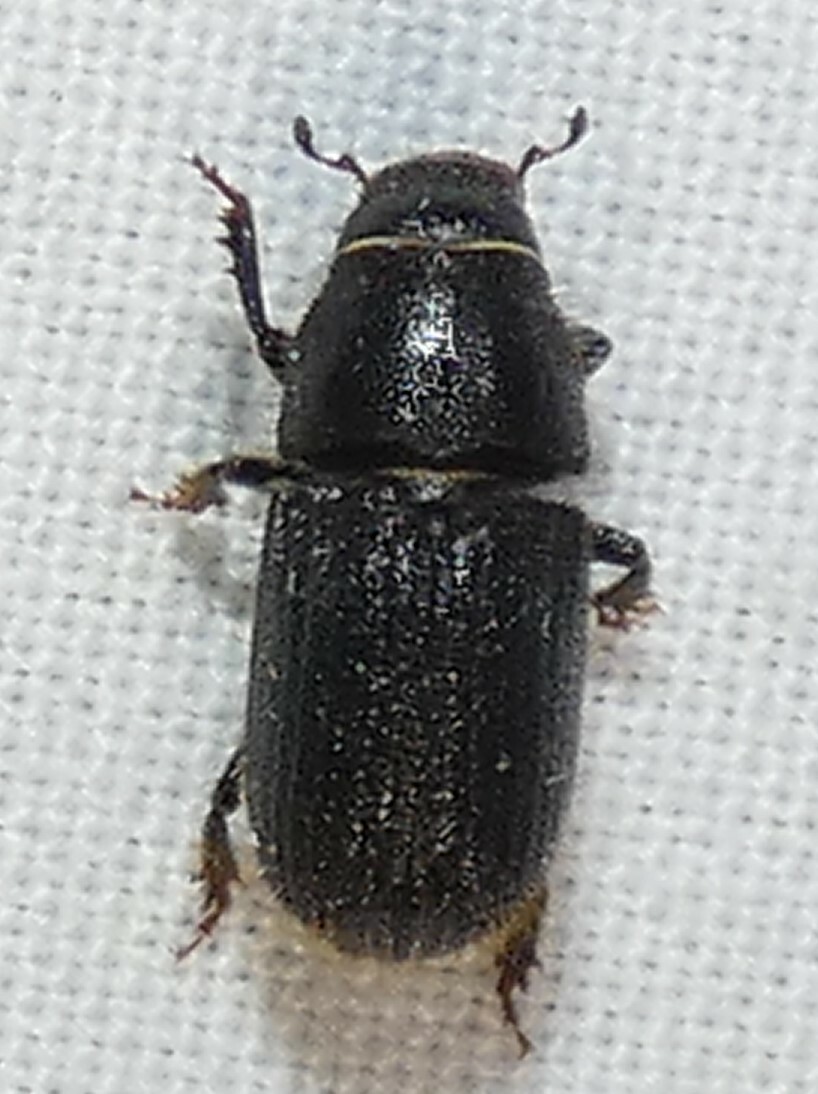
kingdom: Animalia
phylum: Arthropoda
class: Insecta
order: Coleoptera
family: Curculionidae
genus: Dendroctonus
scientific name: Dendroctonus terebrans
